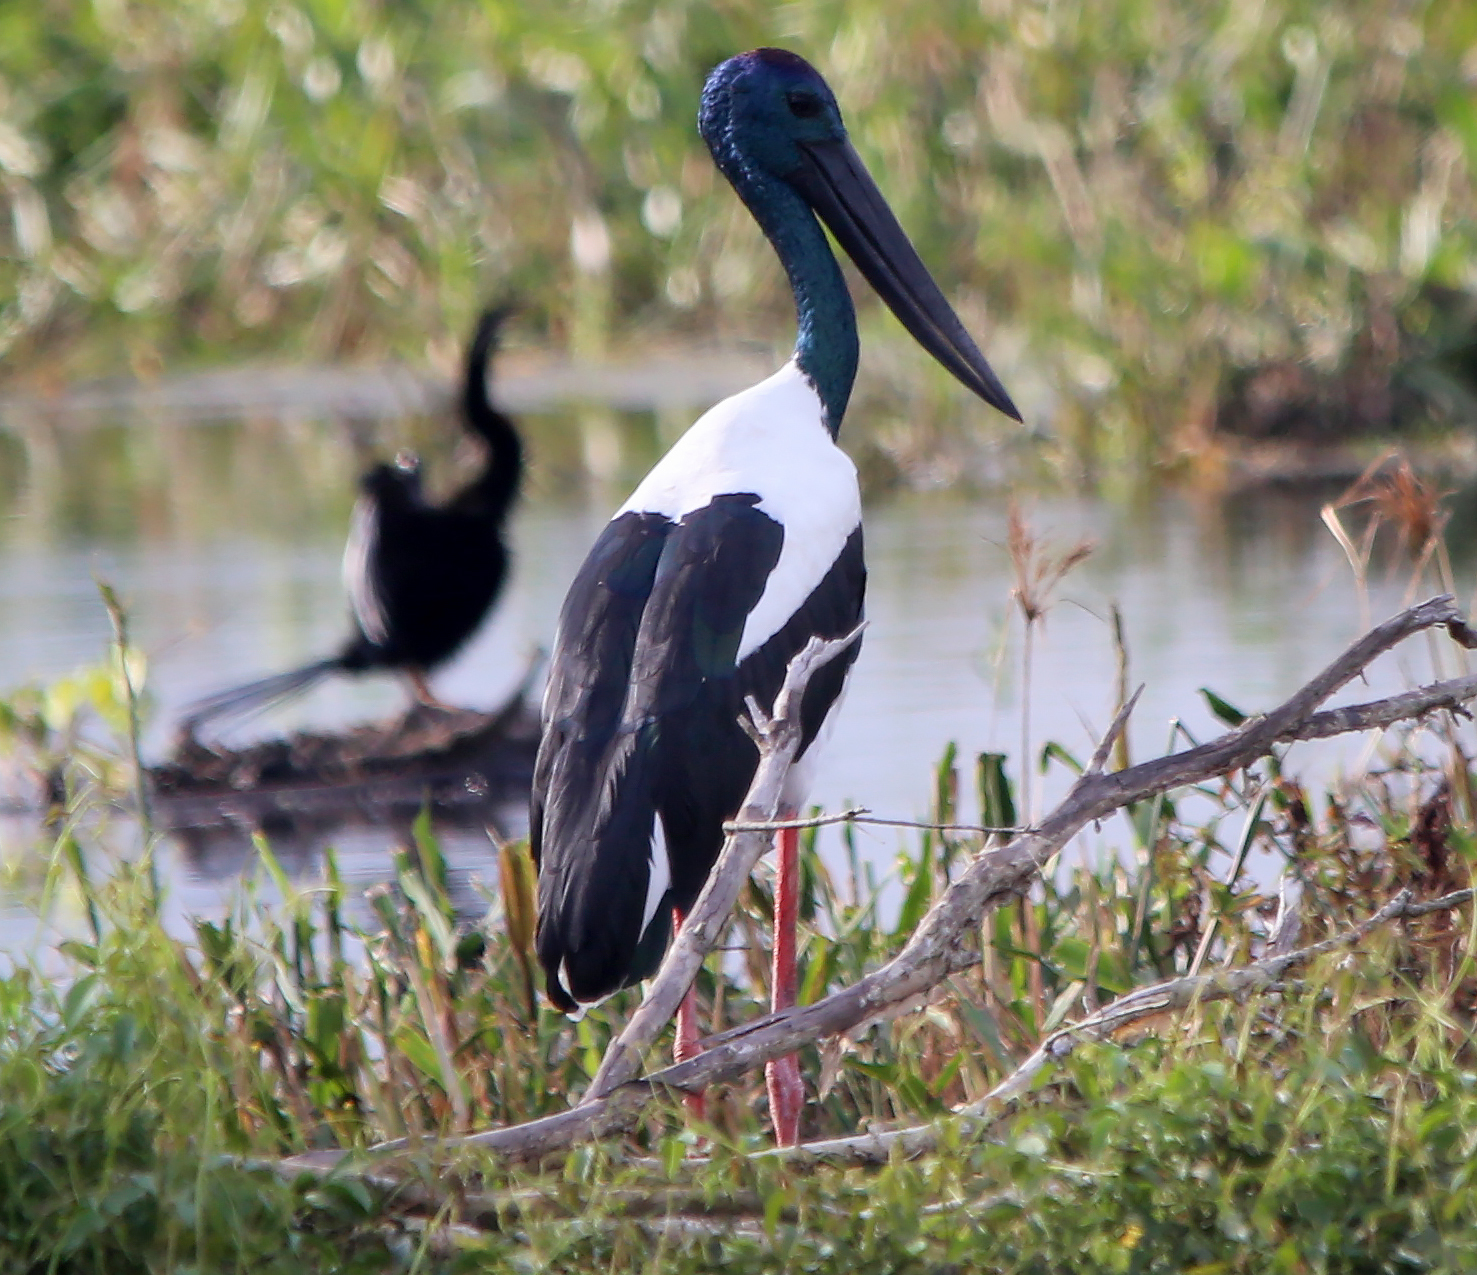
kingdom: Animalia
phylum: Chordata
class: Aves
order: Ciconiiformes
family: Ciconiidae
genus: Ephippiorhynchus
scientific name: Ephippiorhynchus asiaticus
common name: Black-necked stork
